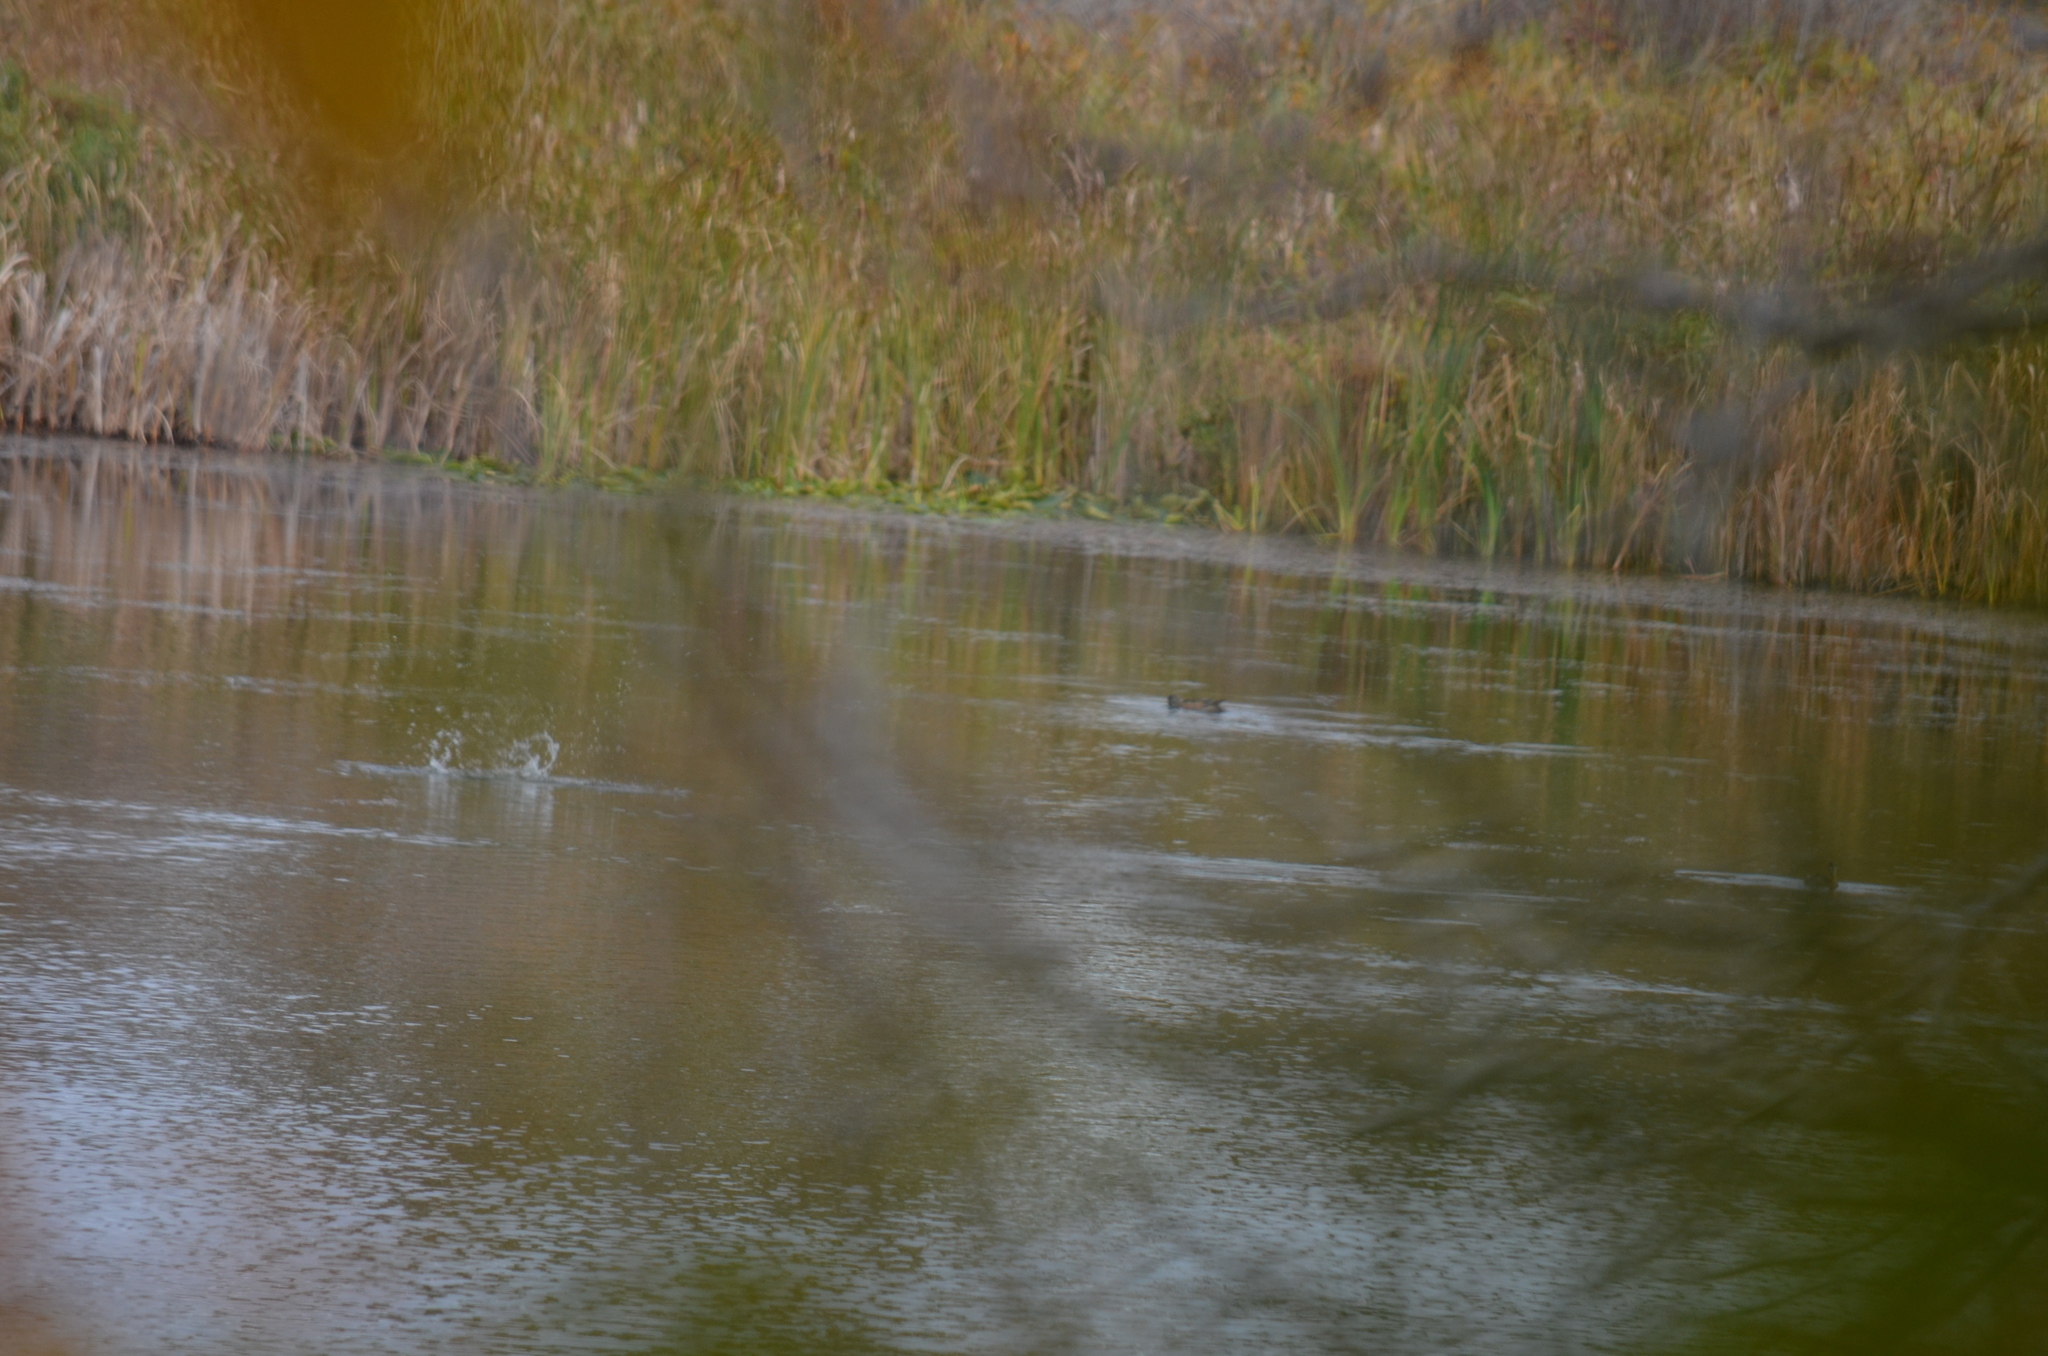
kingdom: Animalia
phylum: Chordata
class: Aves
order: Anseriformes
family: Anatidae
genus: Mareca
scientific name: Mareca americana
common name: American wigeon
